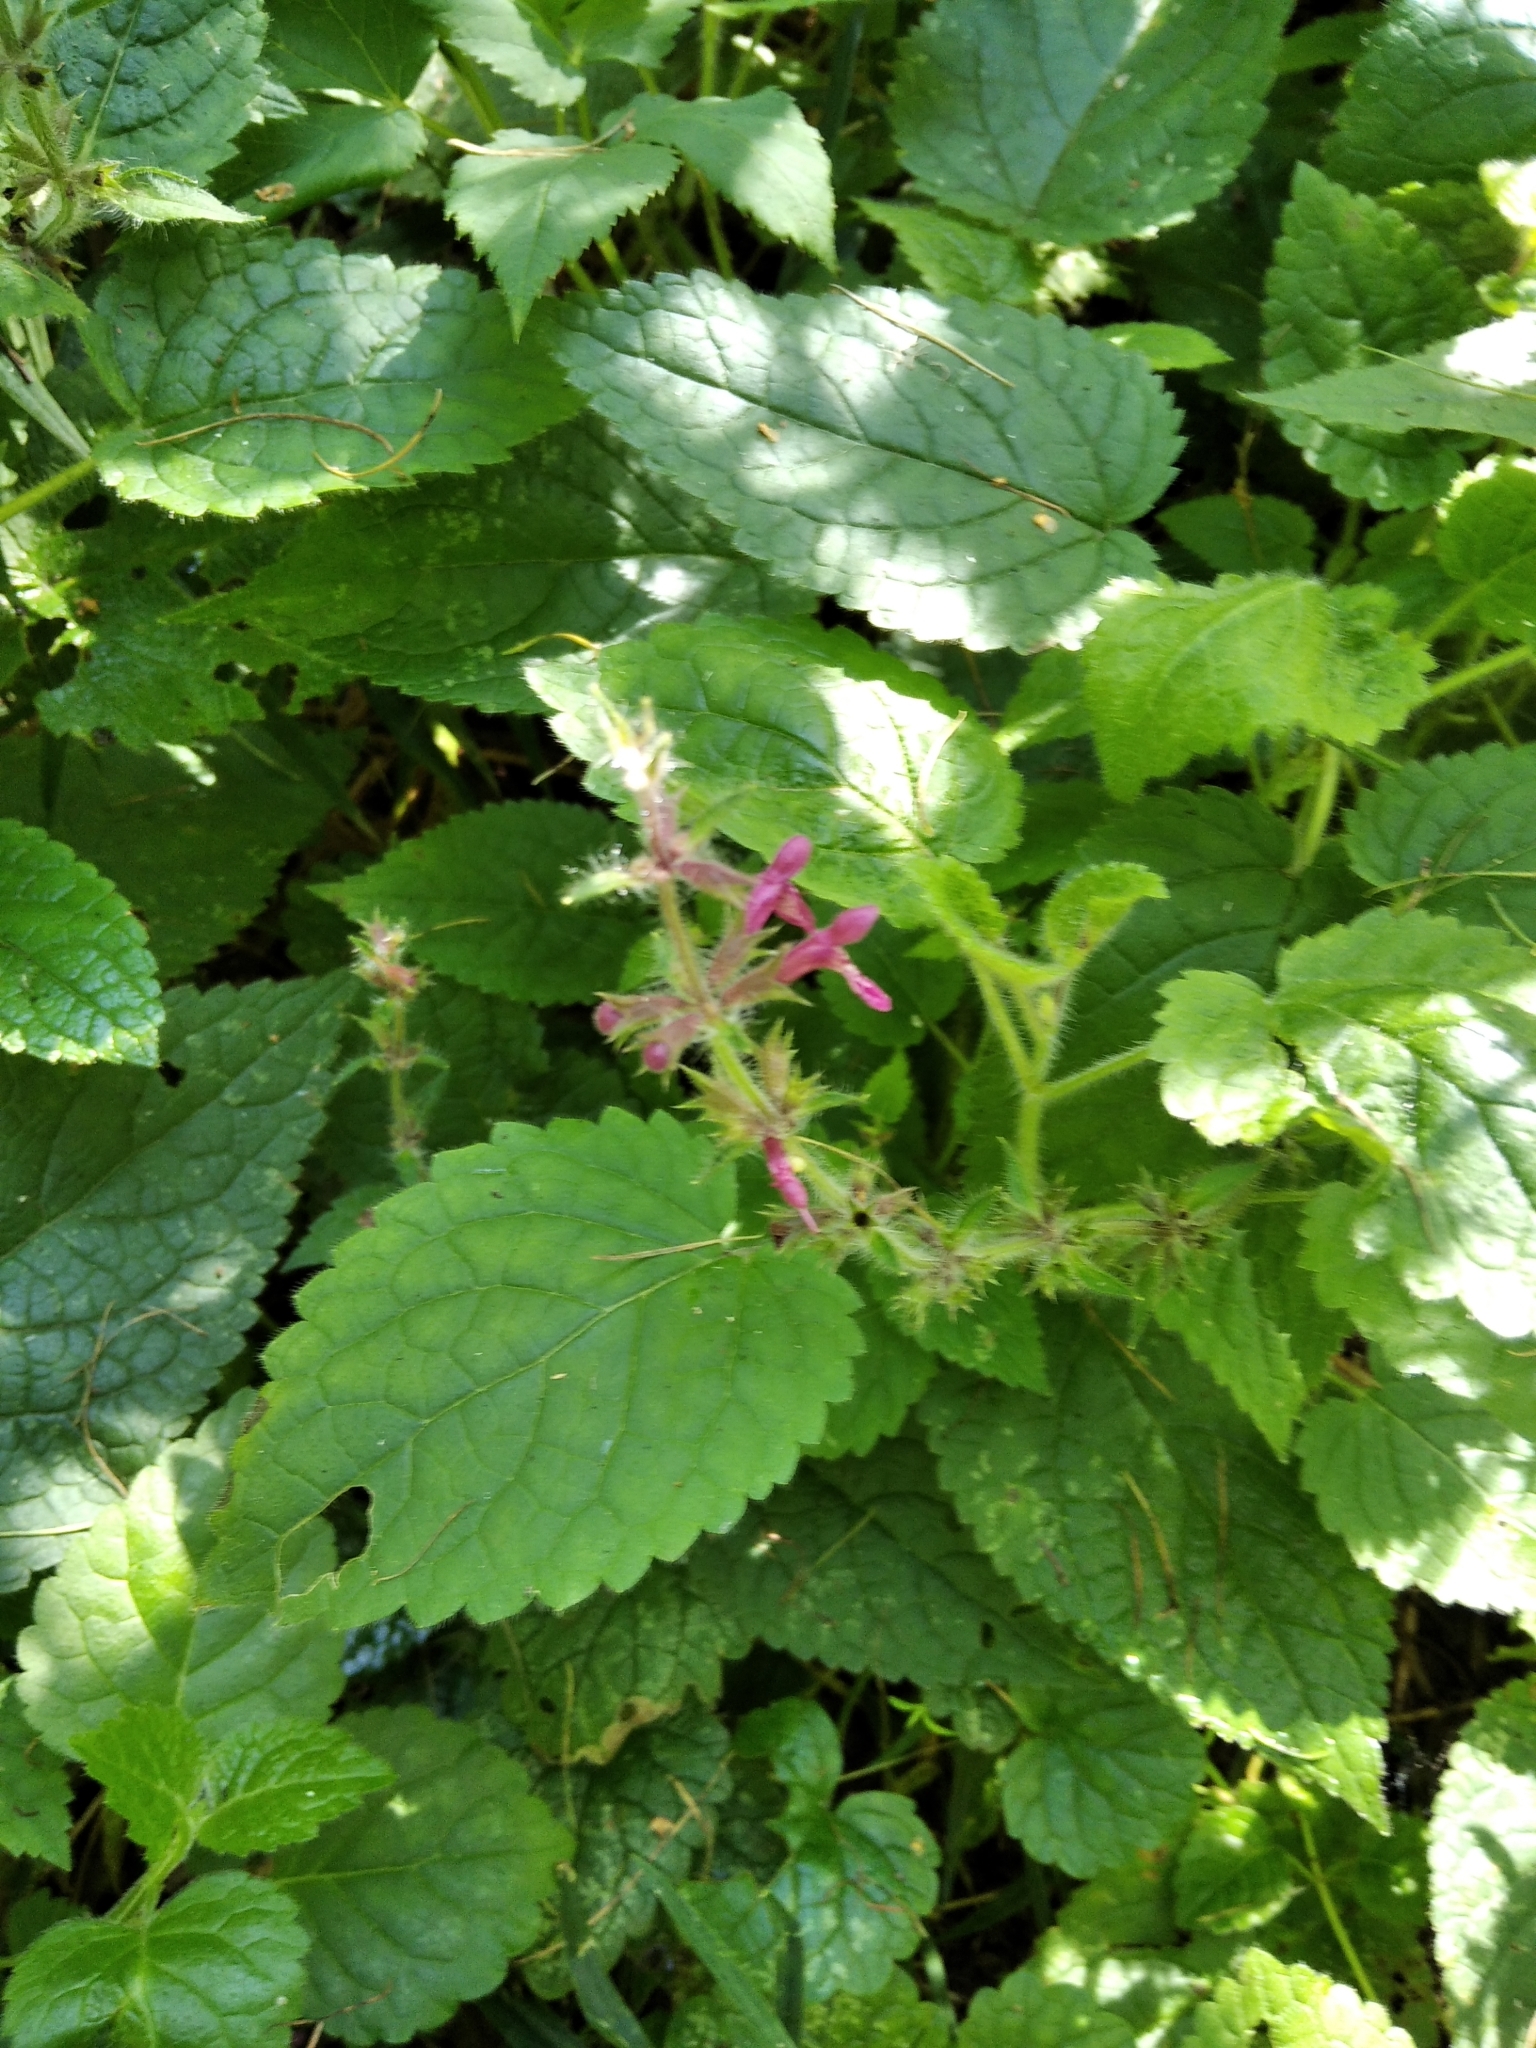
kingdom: Plantae
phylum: Tracheophyta
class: Magnoliopsida
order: Lamiales
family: Lamiaceae
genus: Stachys
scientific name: Stachys sylvatica
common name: Hedge woundwort
